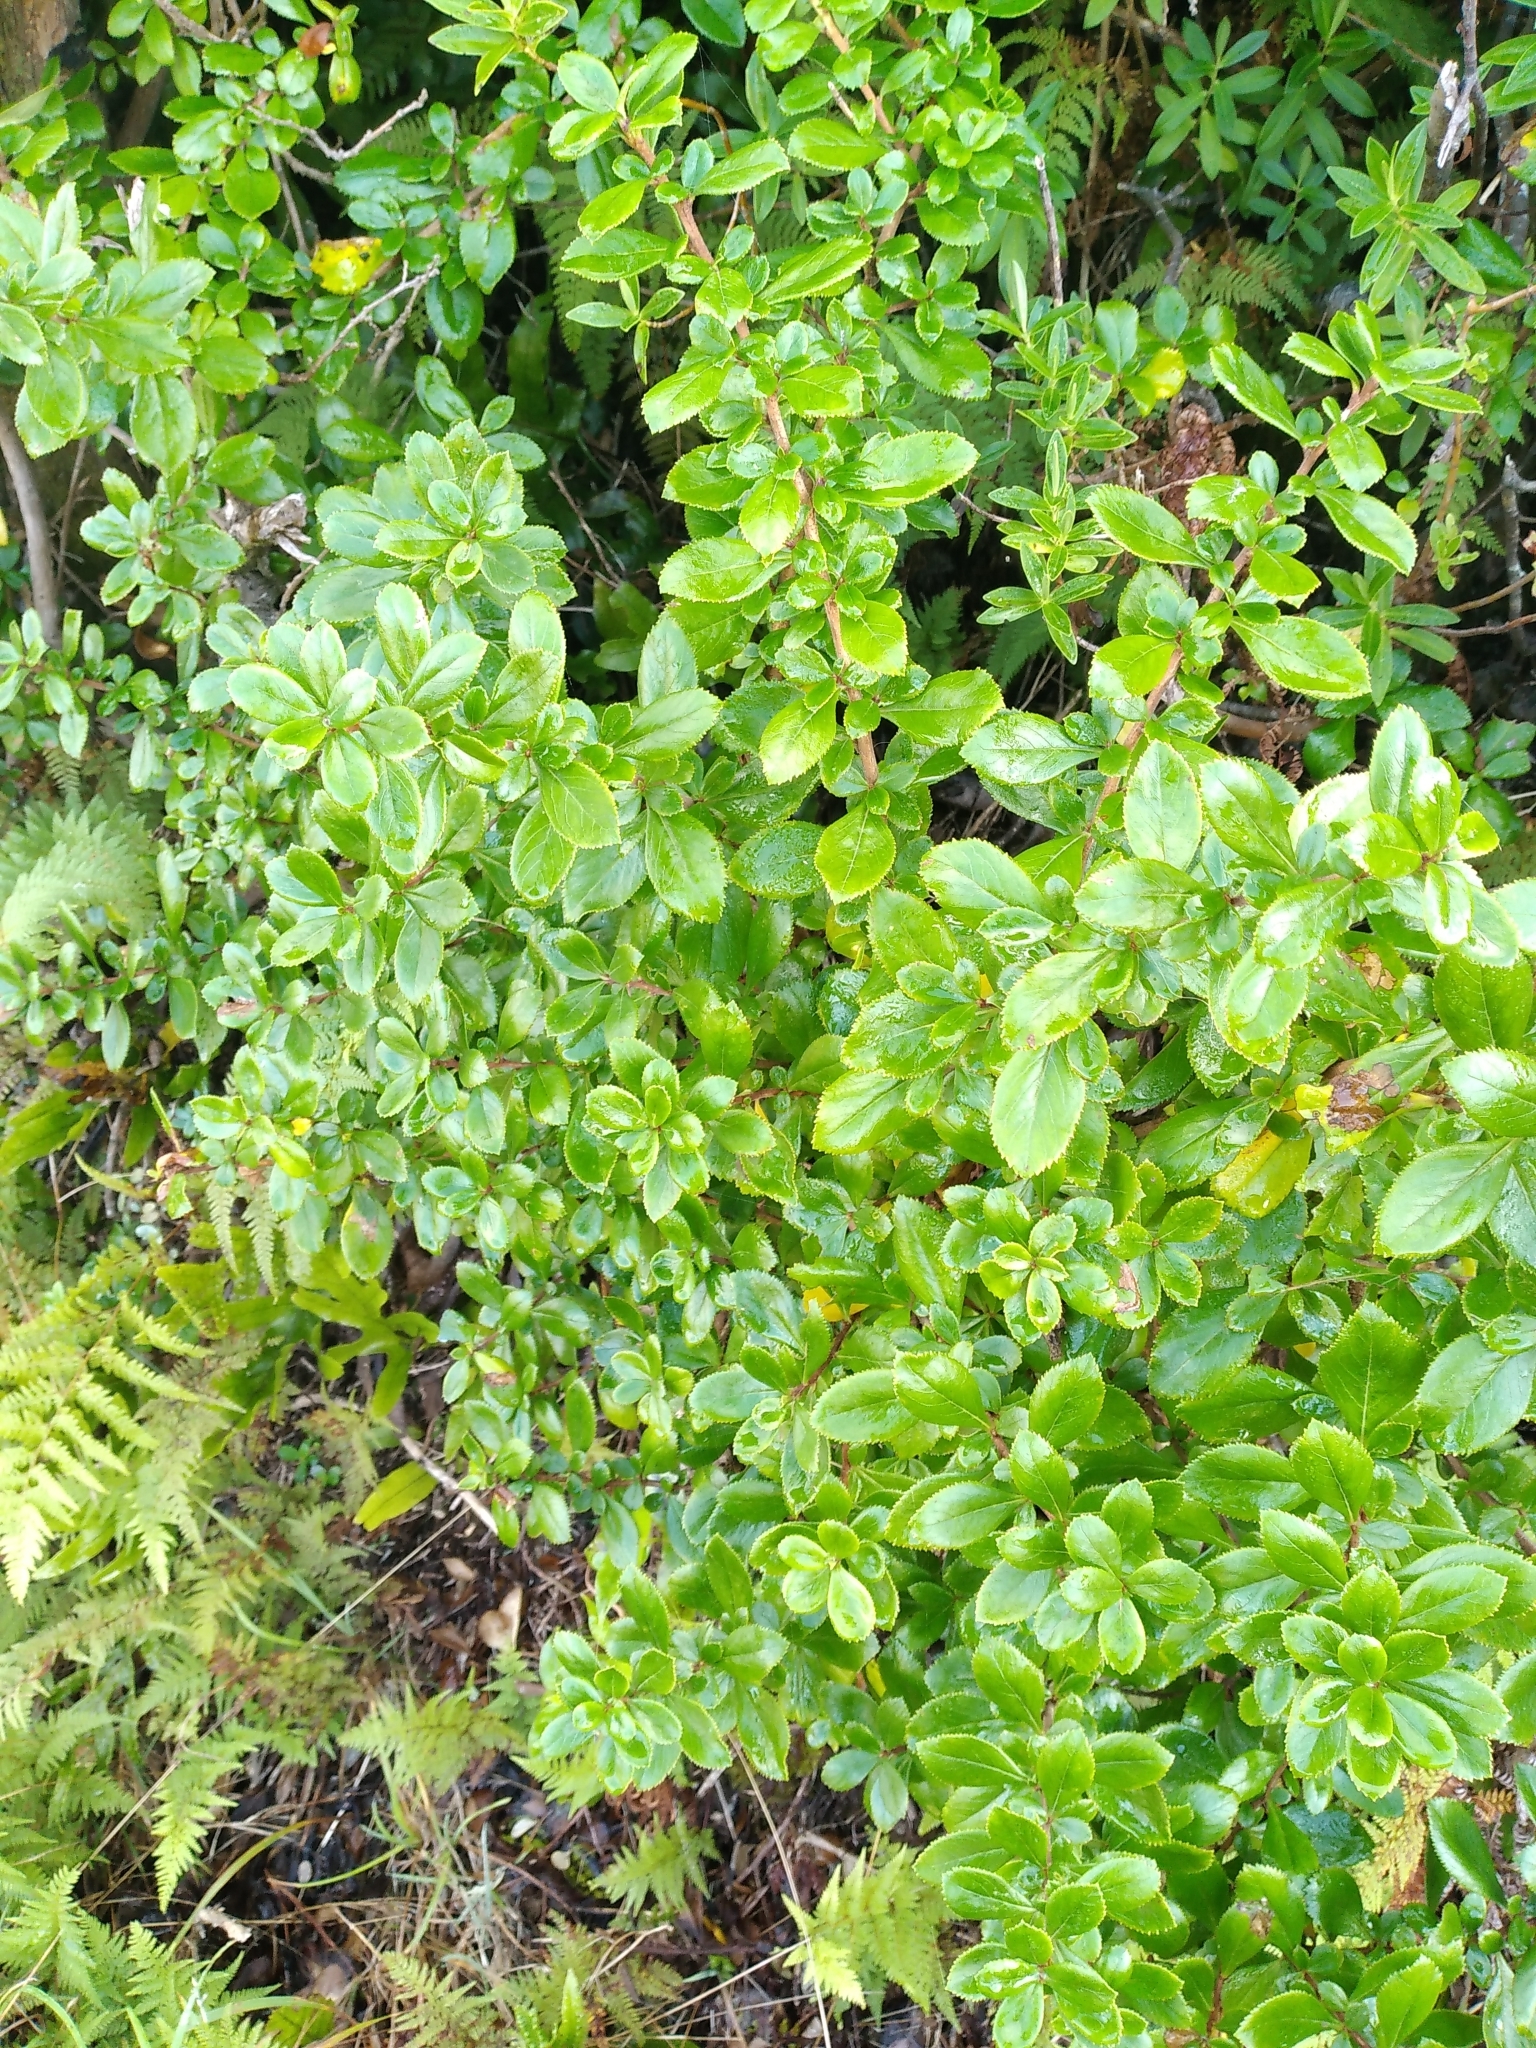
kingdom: Plantae
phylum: Tracheophyta
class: Magnoliopsida
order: Escalloniales
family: Escalloniaceae
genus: Escallonia
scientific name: Escallonia rubra
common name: Redclaws
